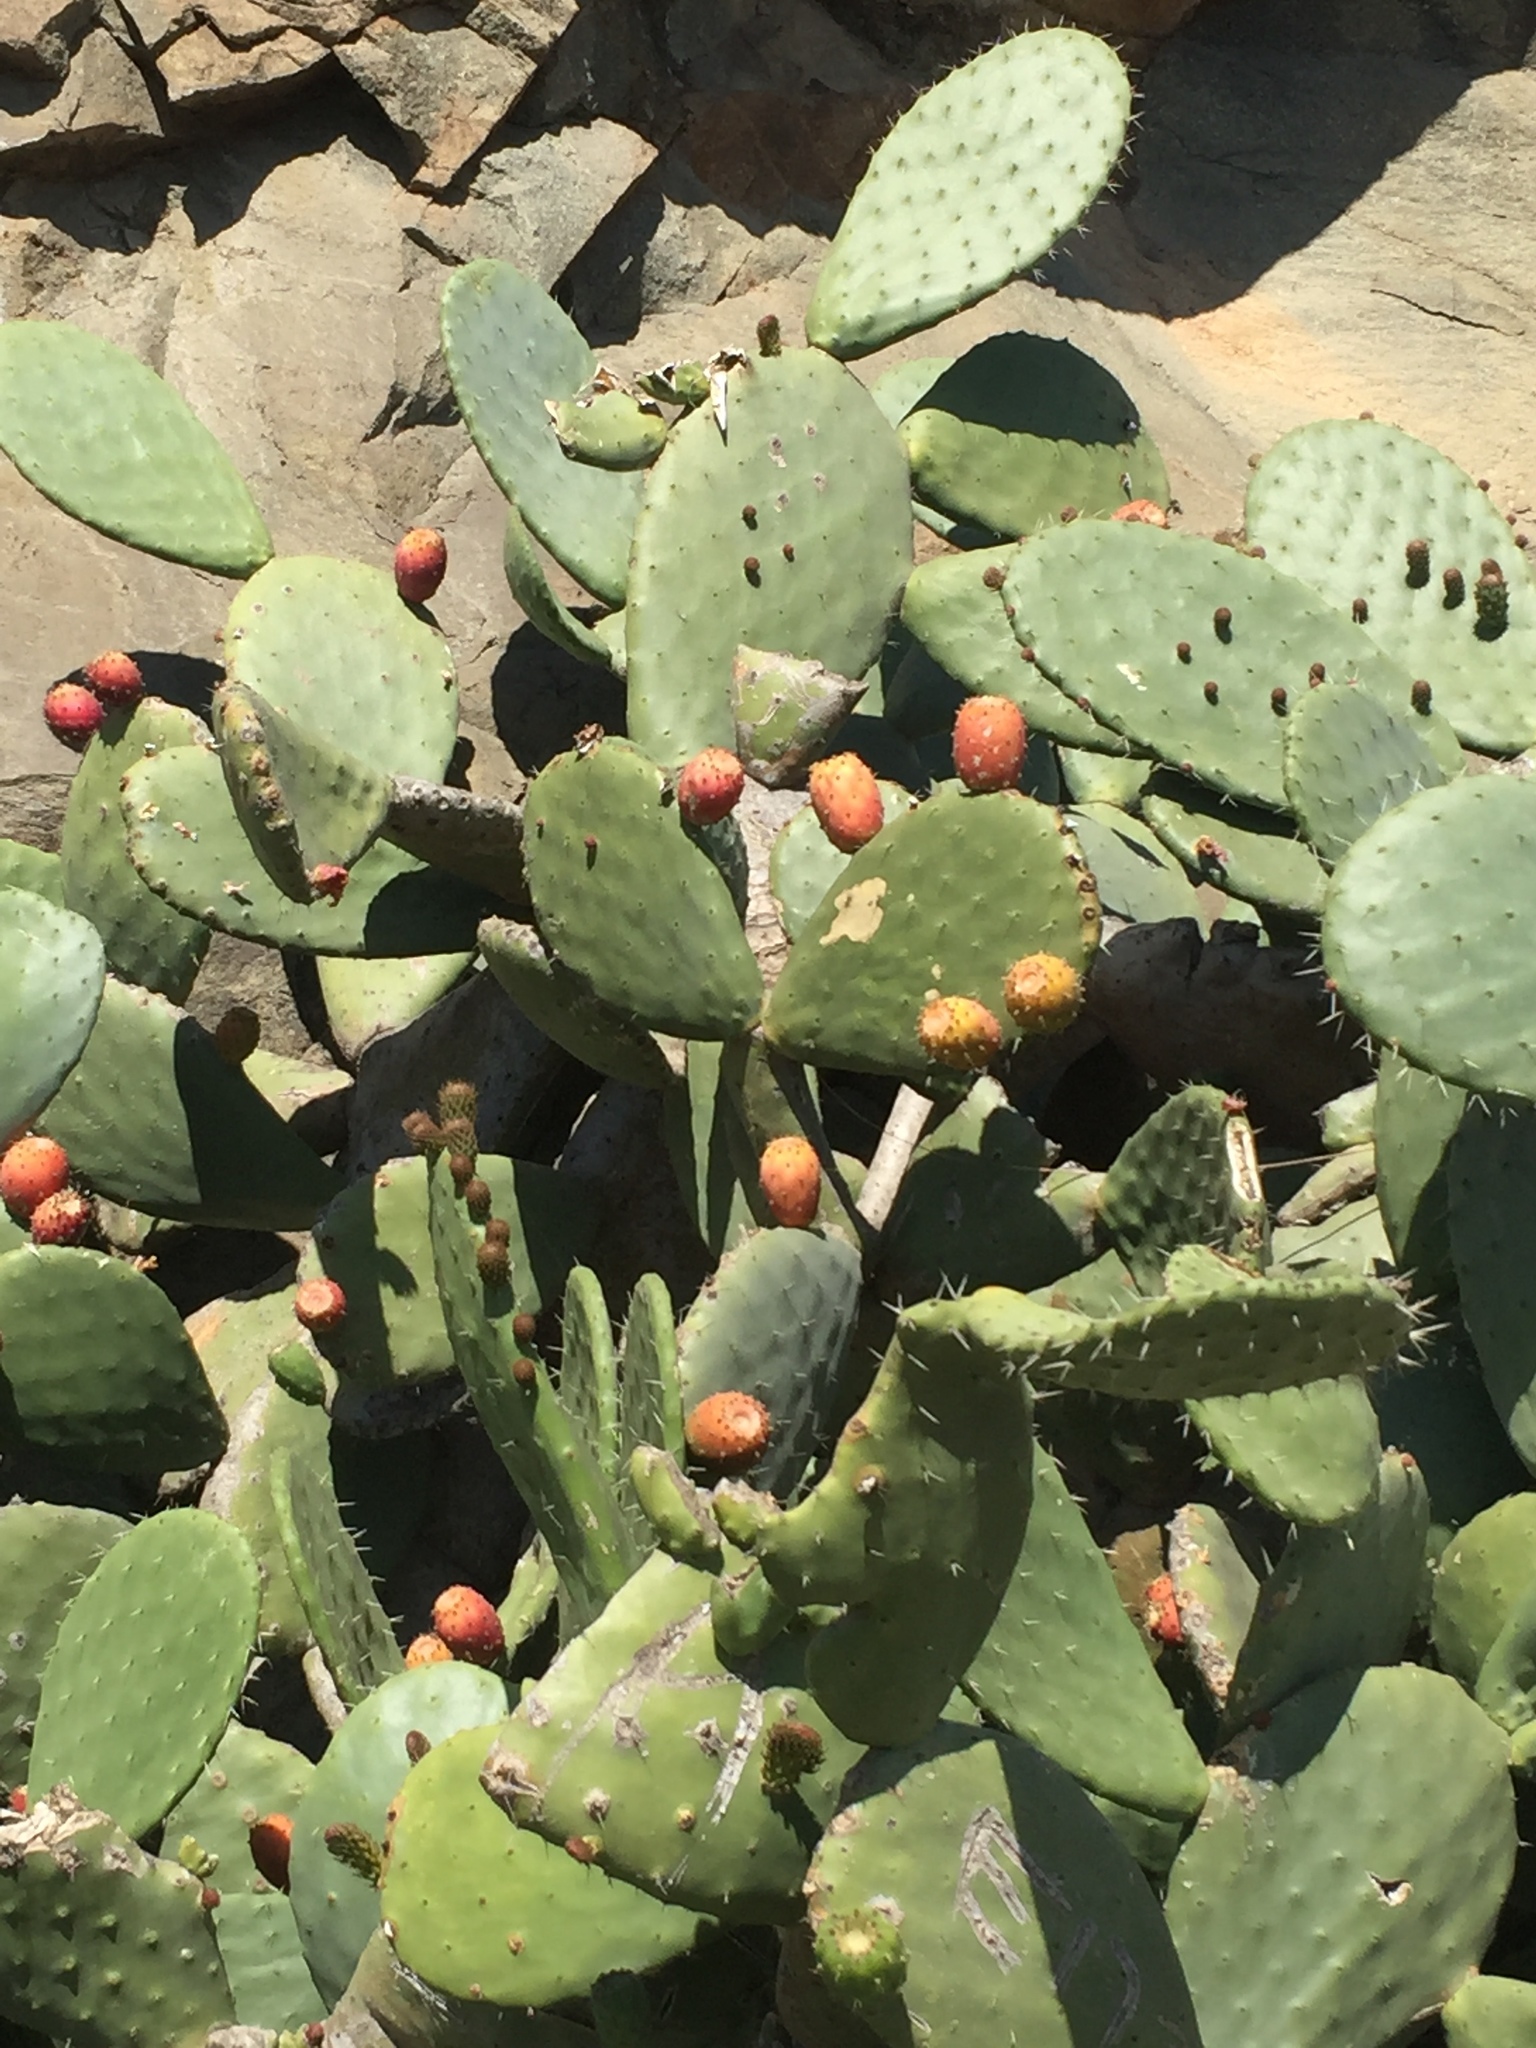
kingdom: Plantae
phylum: Tracheophyta
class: Magnoliopsida
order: Caryophyllales
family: Cactaceae
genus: Opuntia
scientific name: Opuntia ficus-indica
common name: Barbary fig
